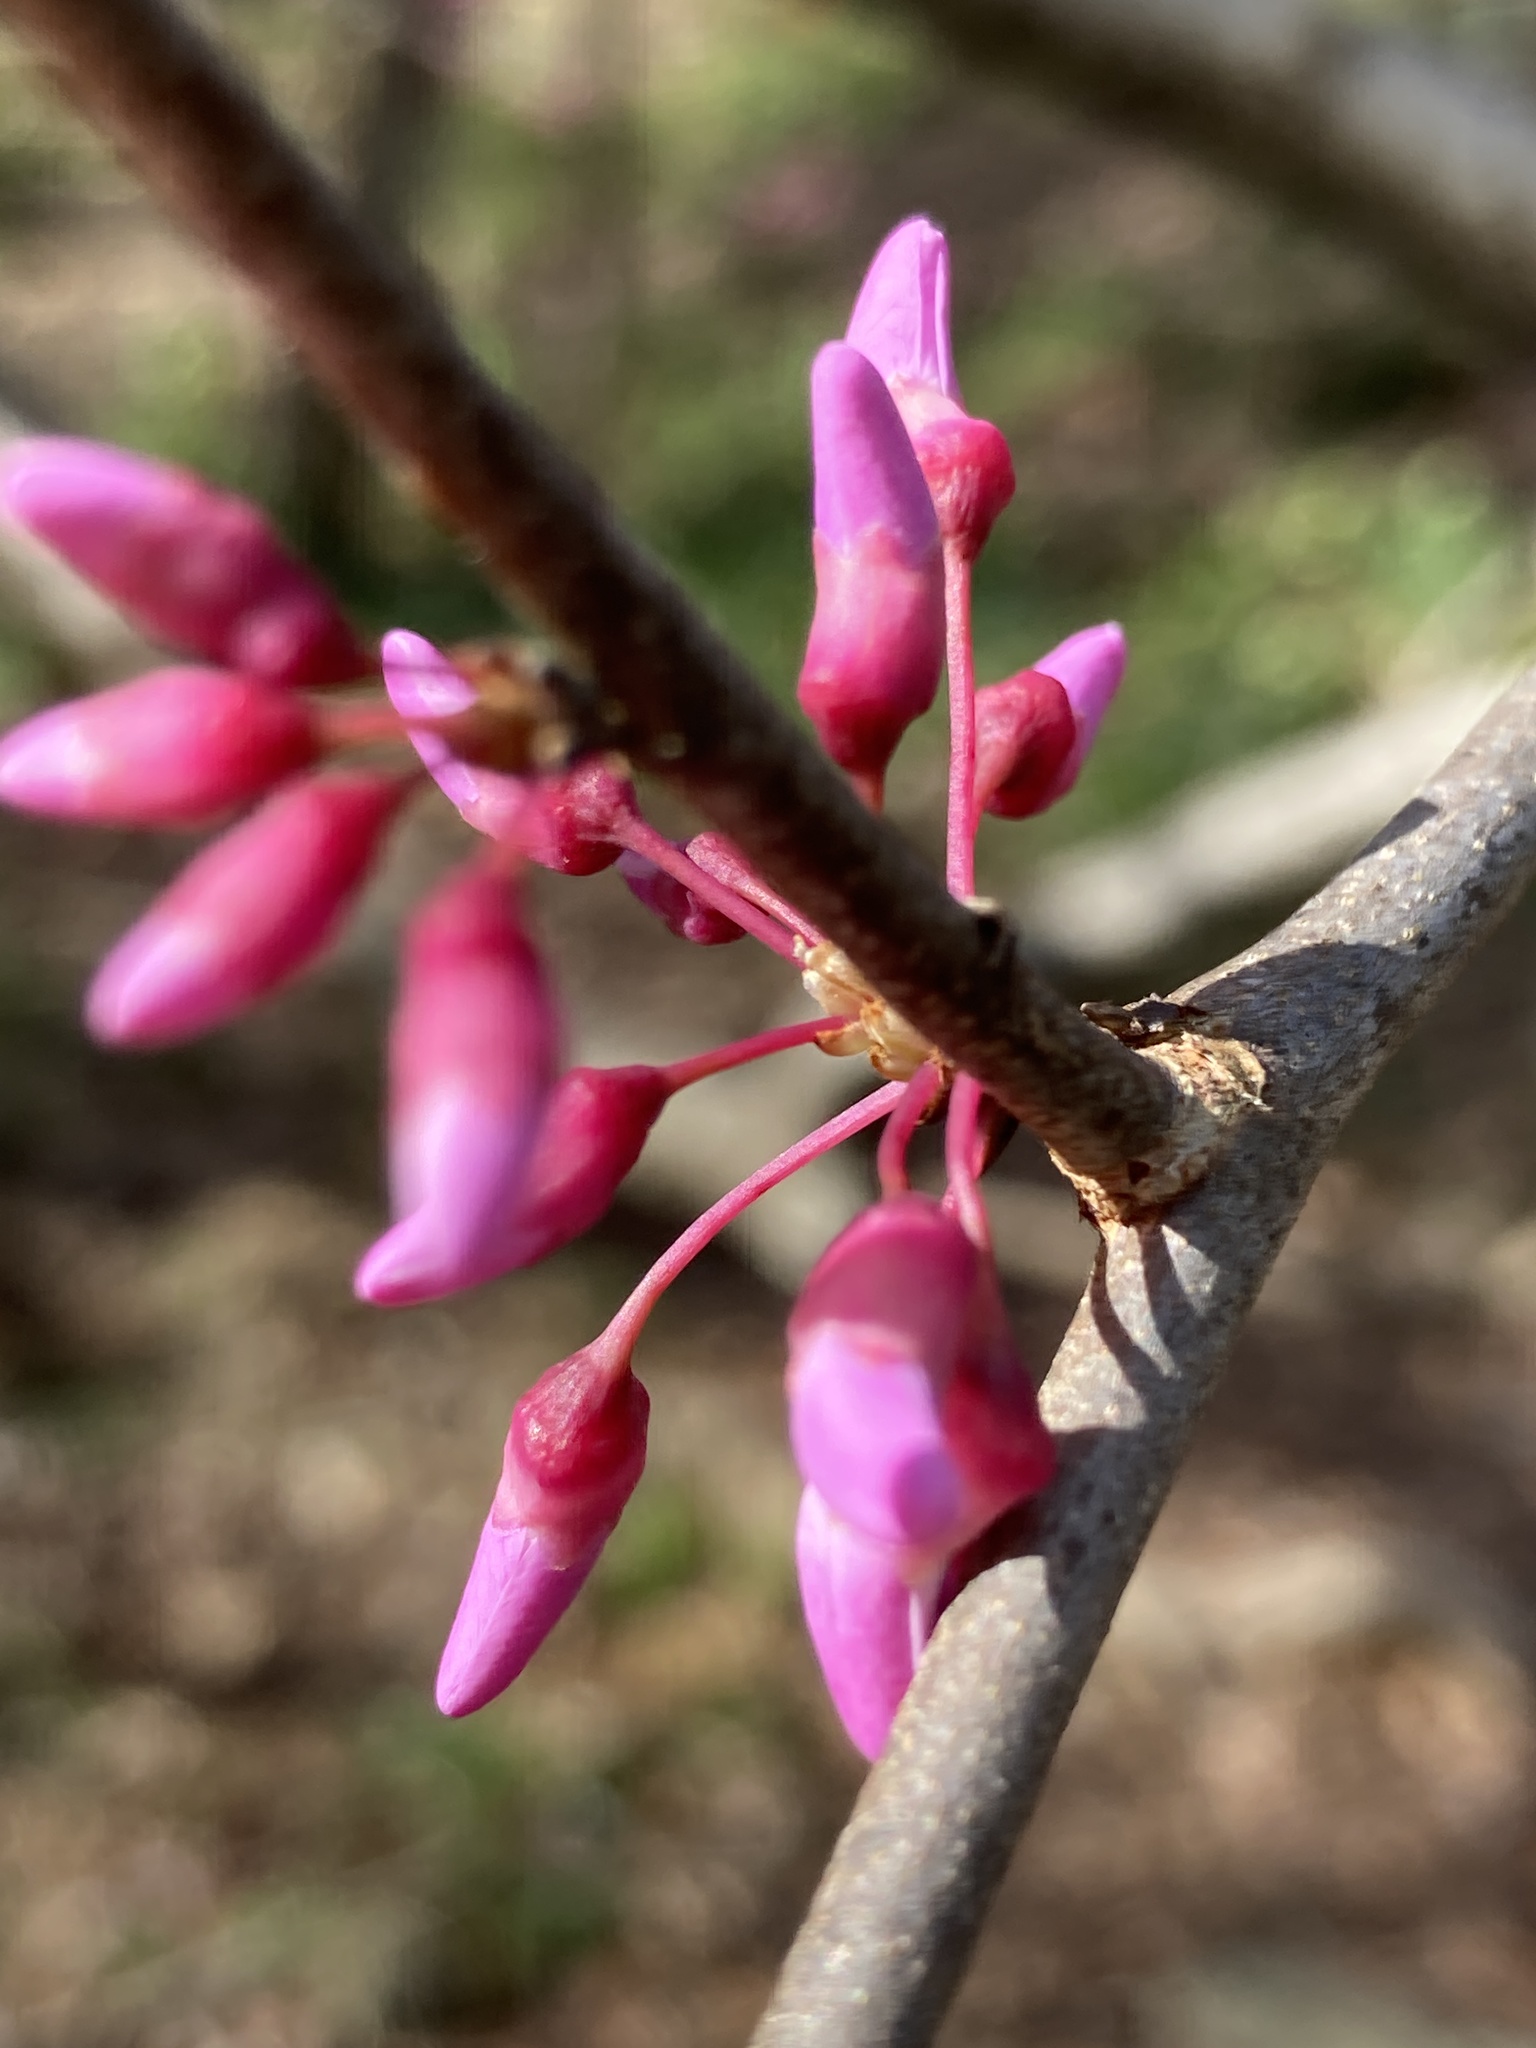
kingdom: Plantae
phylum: Tracheophyta
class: Magnoliopsida
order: Fabales
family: Fabaceae
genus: Cercis
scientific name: Cercis canadensis
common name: Eastern redbud
